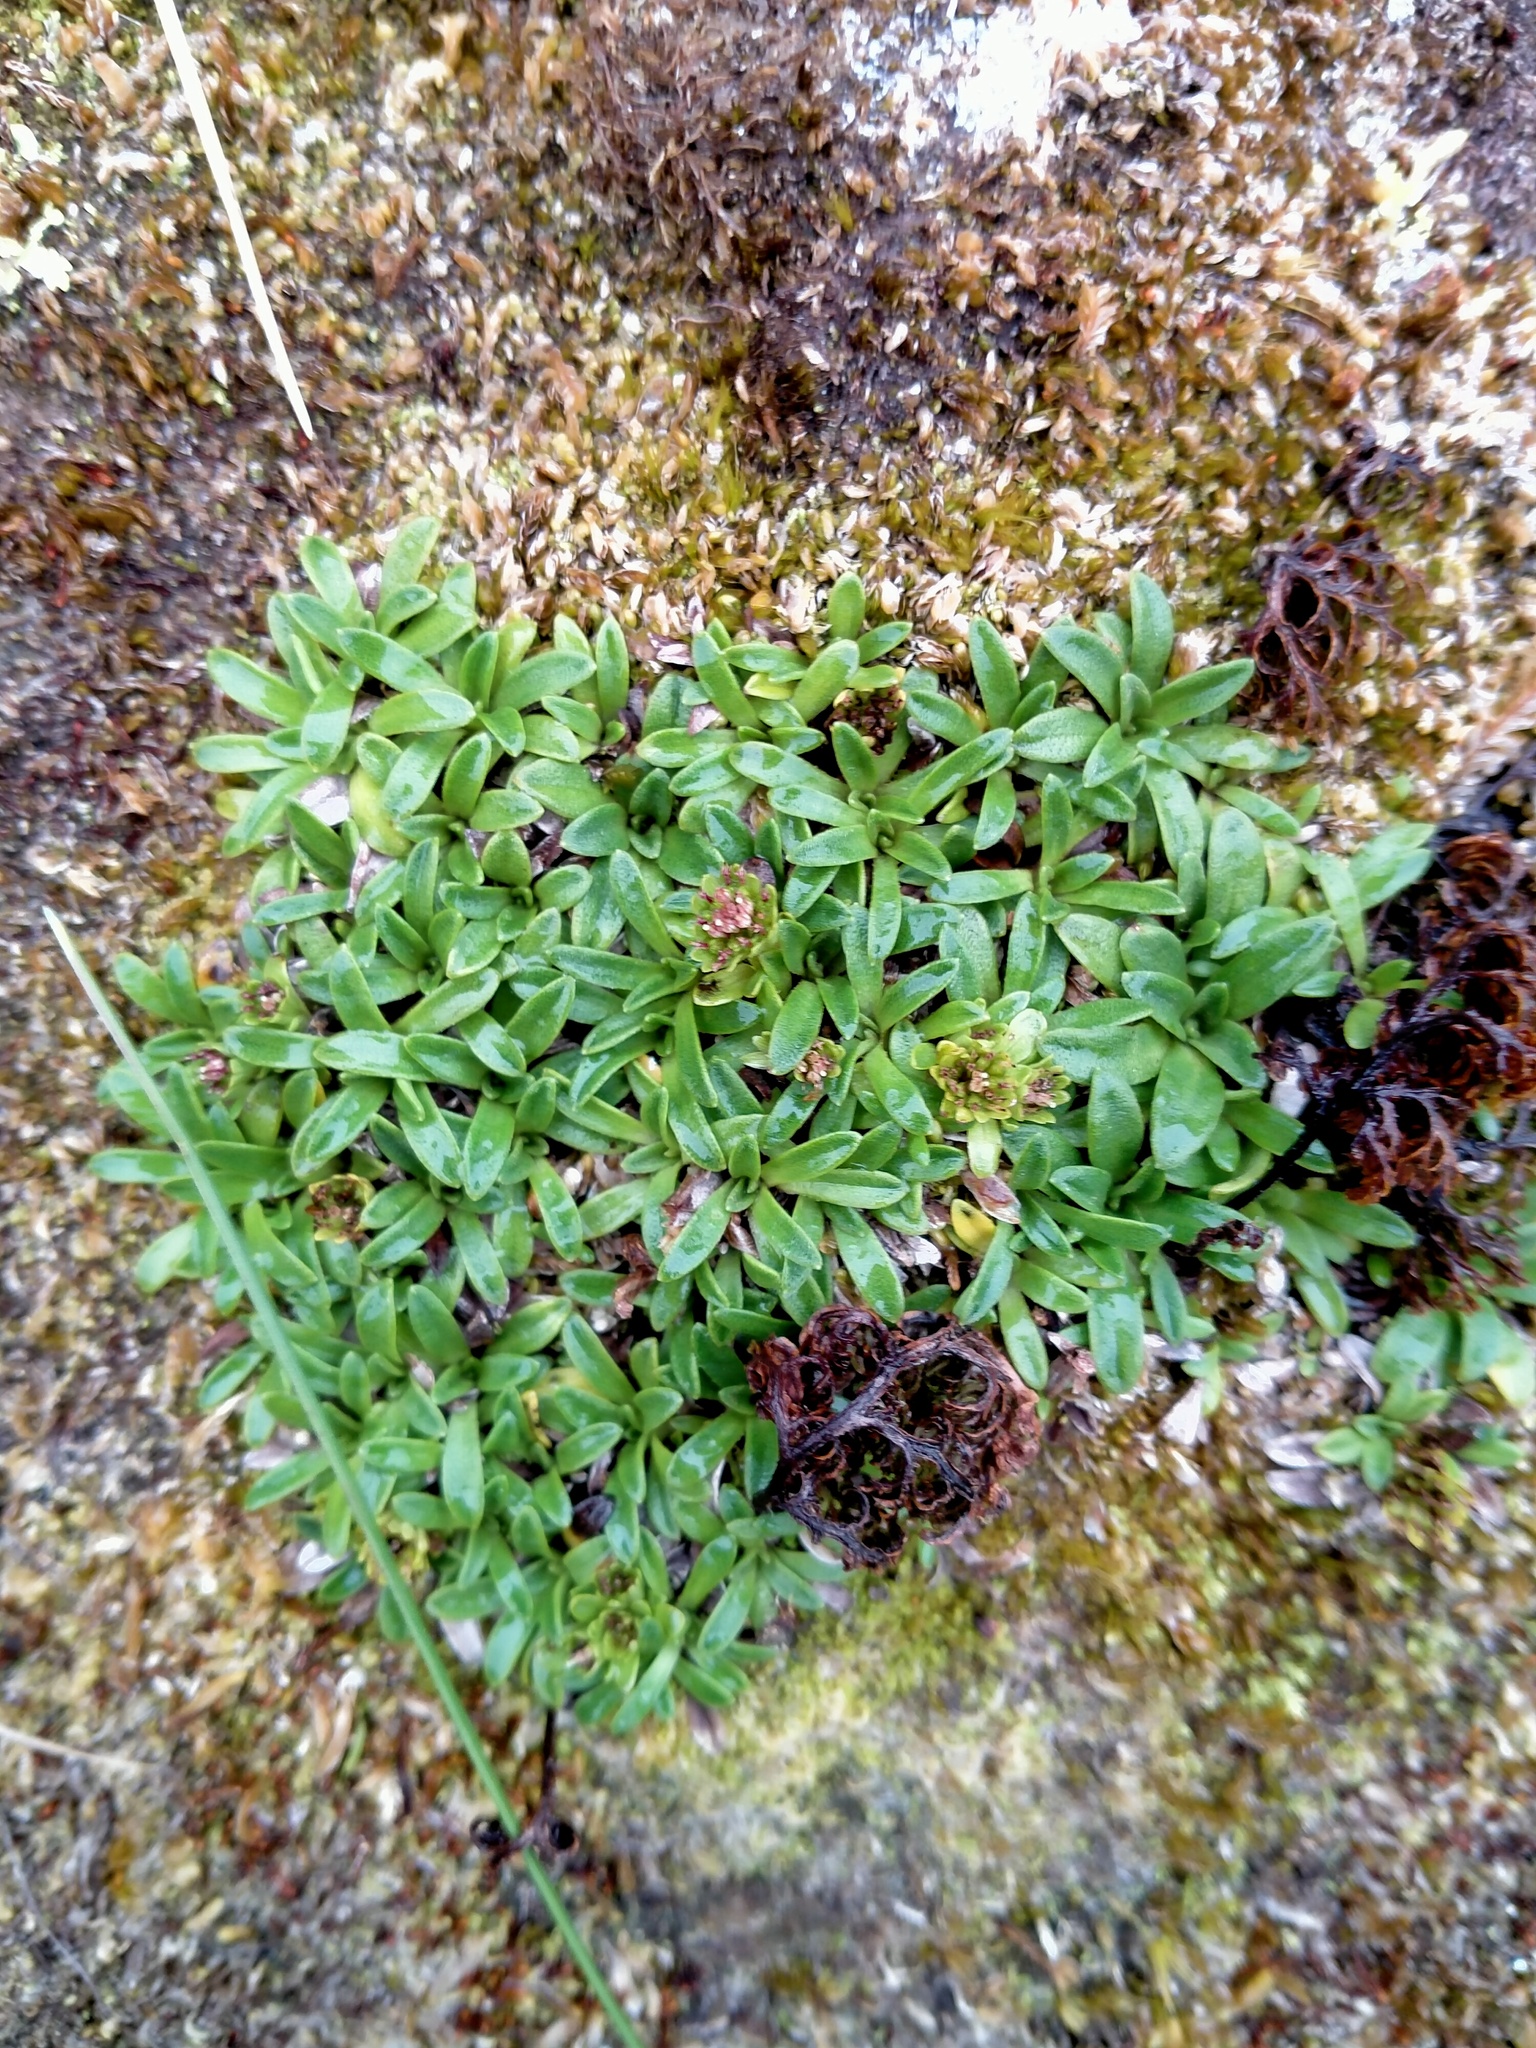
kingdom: Plantae
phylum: Tracheophyta
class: Magnoliopsida
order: Asterales
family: Asteraceae
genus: Abrotanella
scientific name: Abrotanella spathulata
